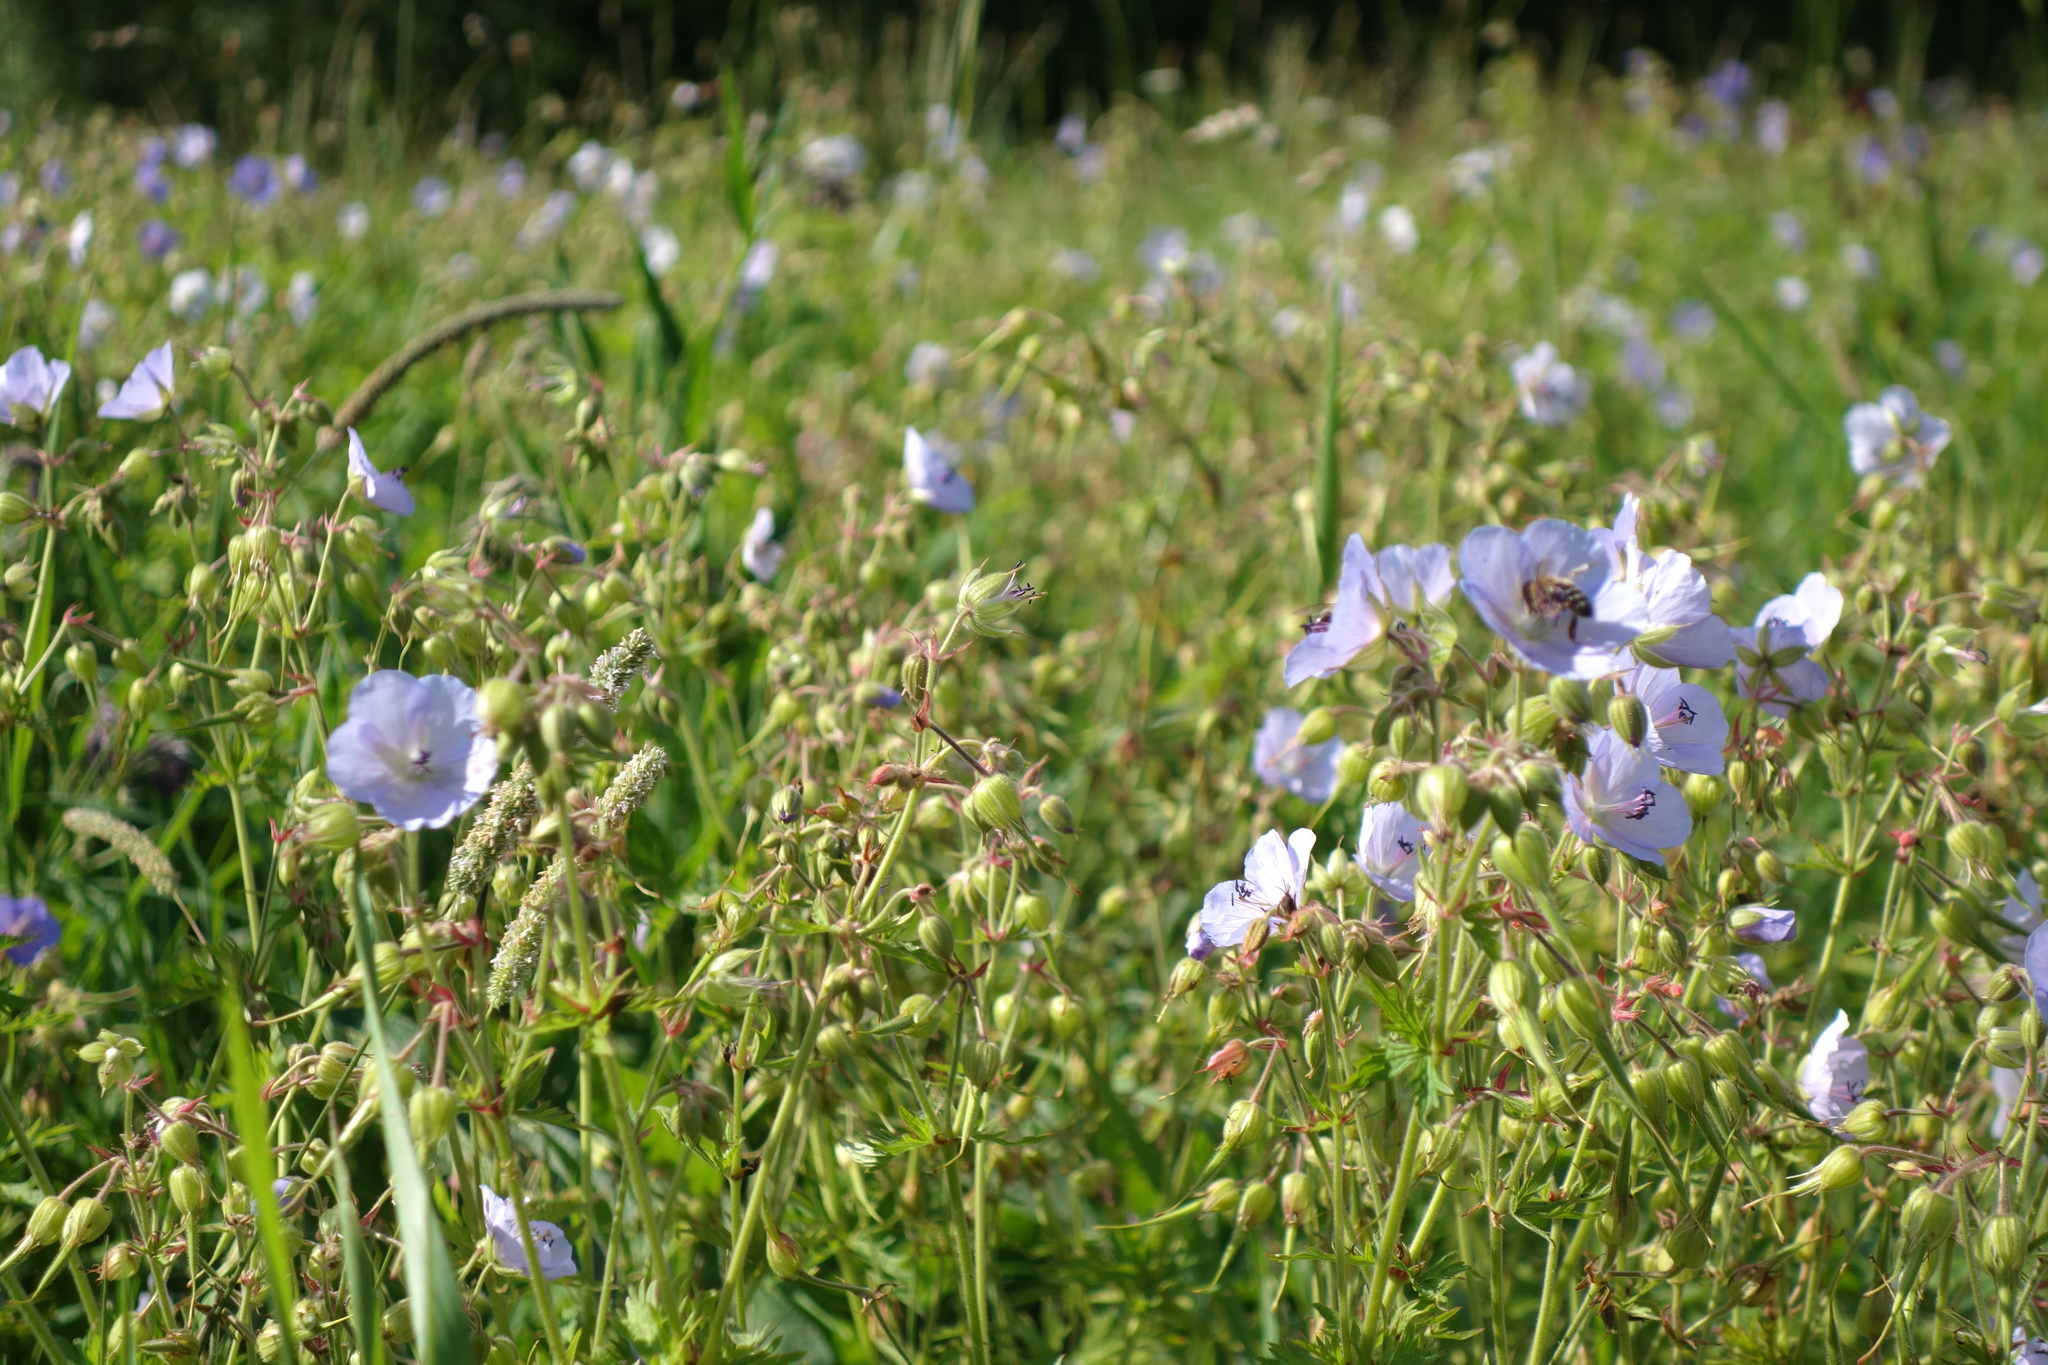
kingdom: Plantae
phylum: Tracheophyta
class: Magnoliopsida
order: Geraniales
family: Geraniaceae
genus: Geranium
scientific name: Geranium pratense
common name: Meadow crane's-bill
